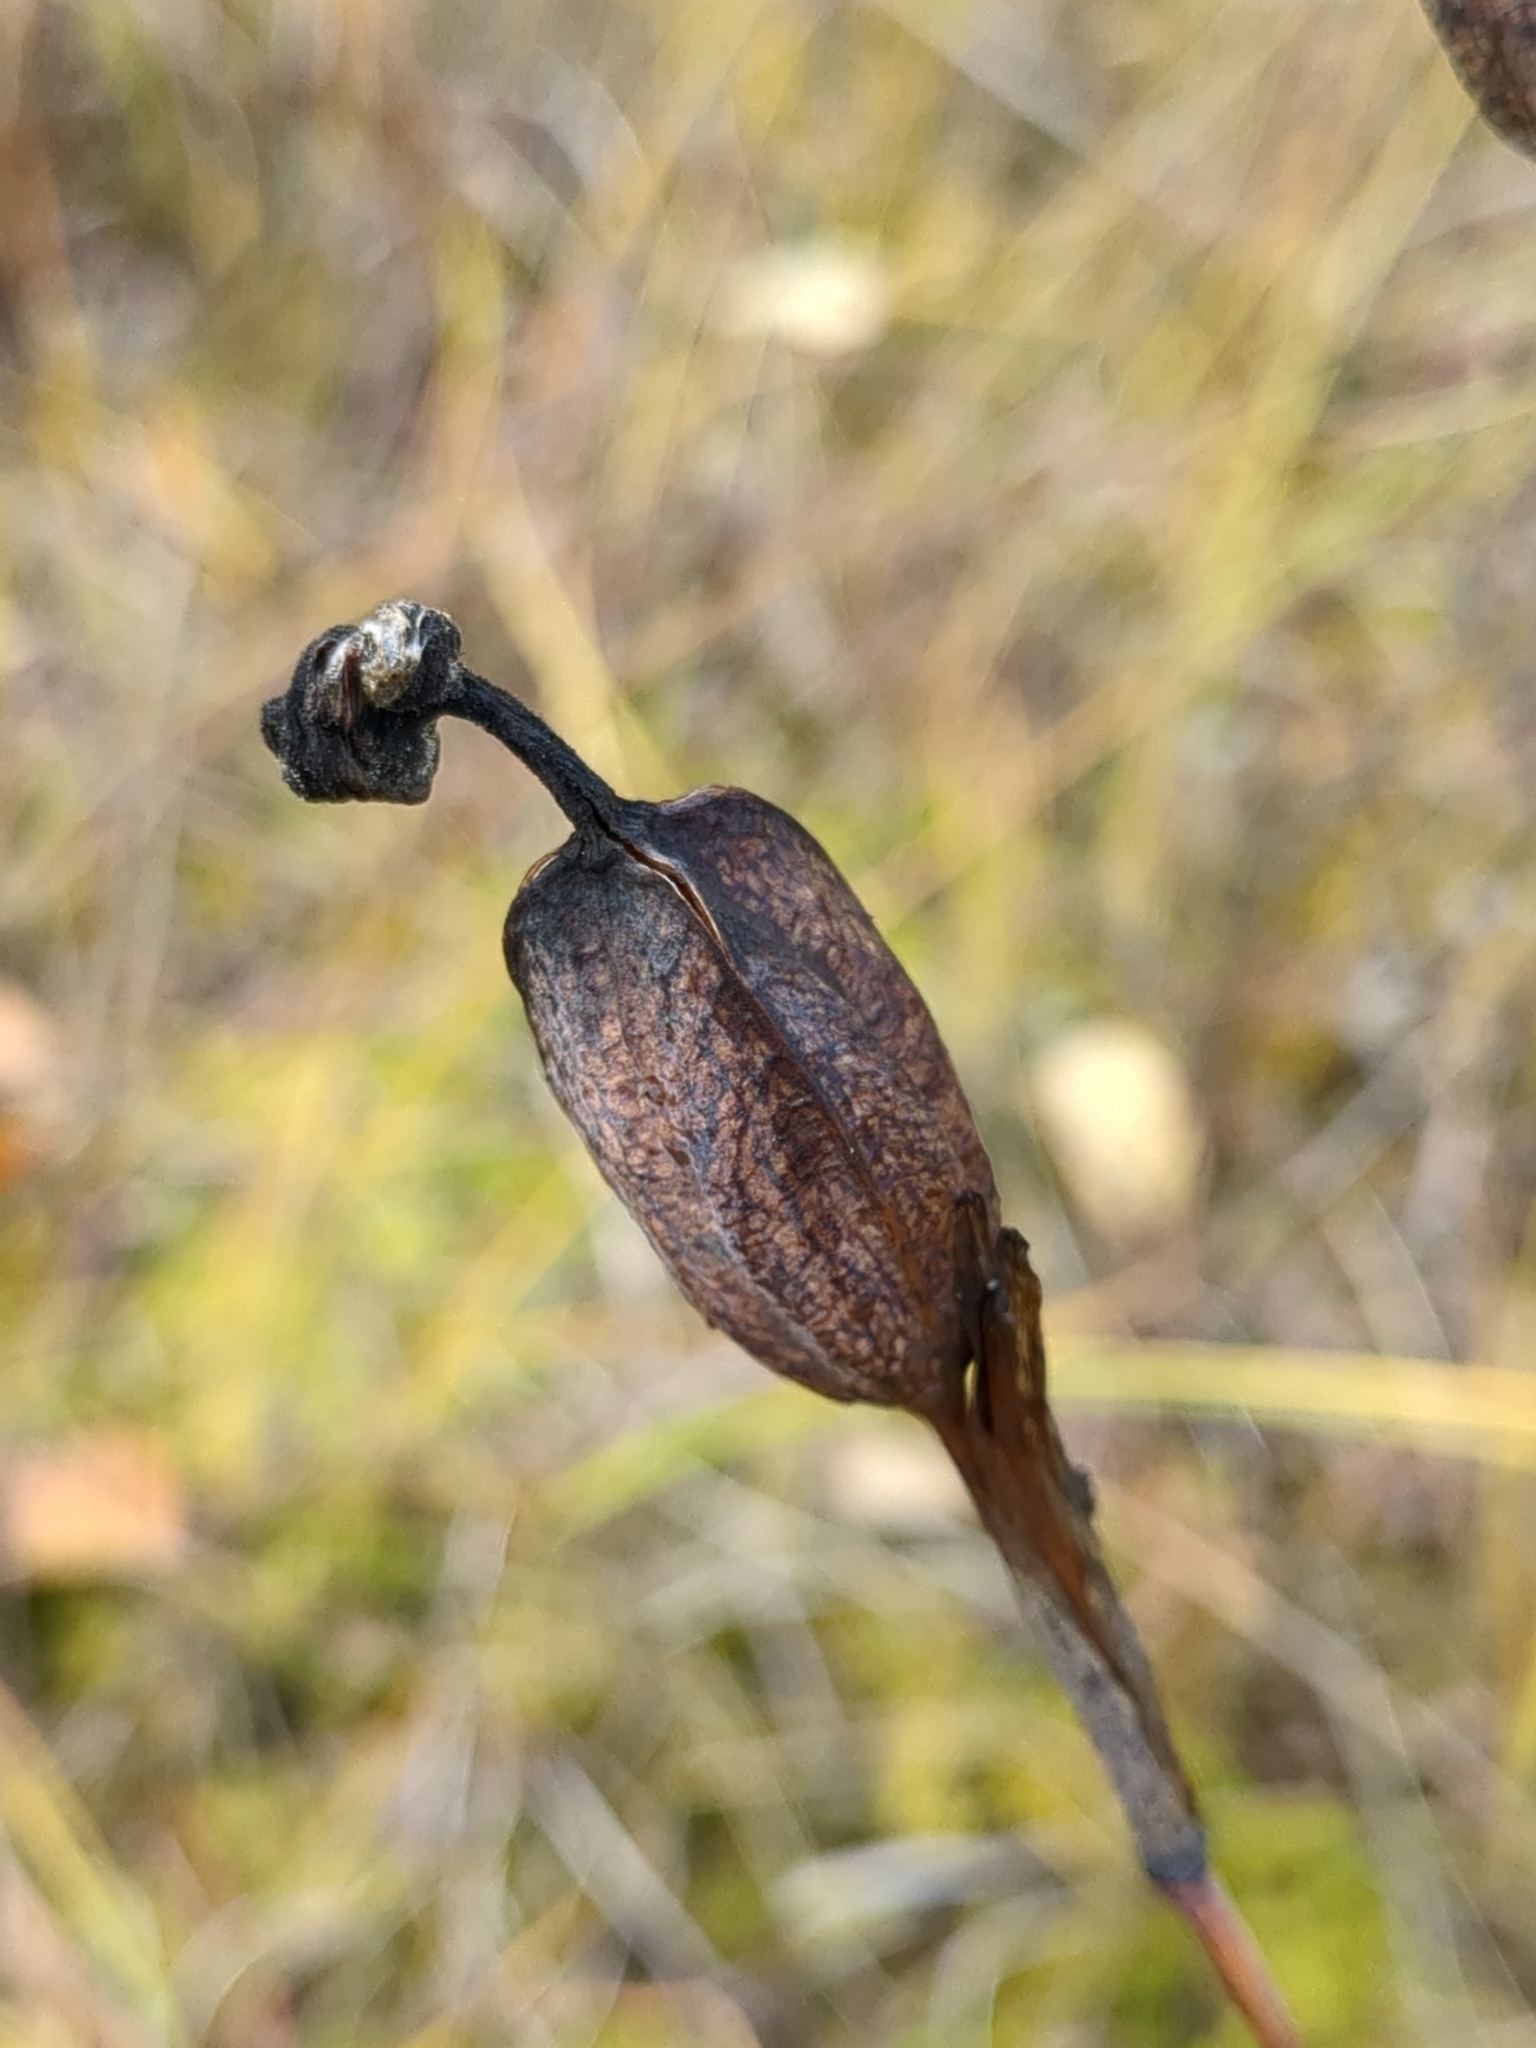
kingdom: Plantae
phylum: Tracheophyta
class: Liliopsida
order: Asparagales
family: Iridaceae
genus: Iris
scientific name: Iris setosa
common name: Arctic blue flag
